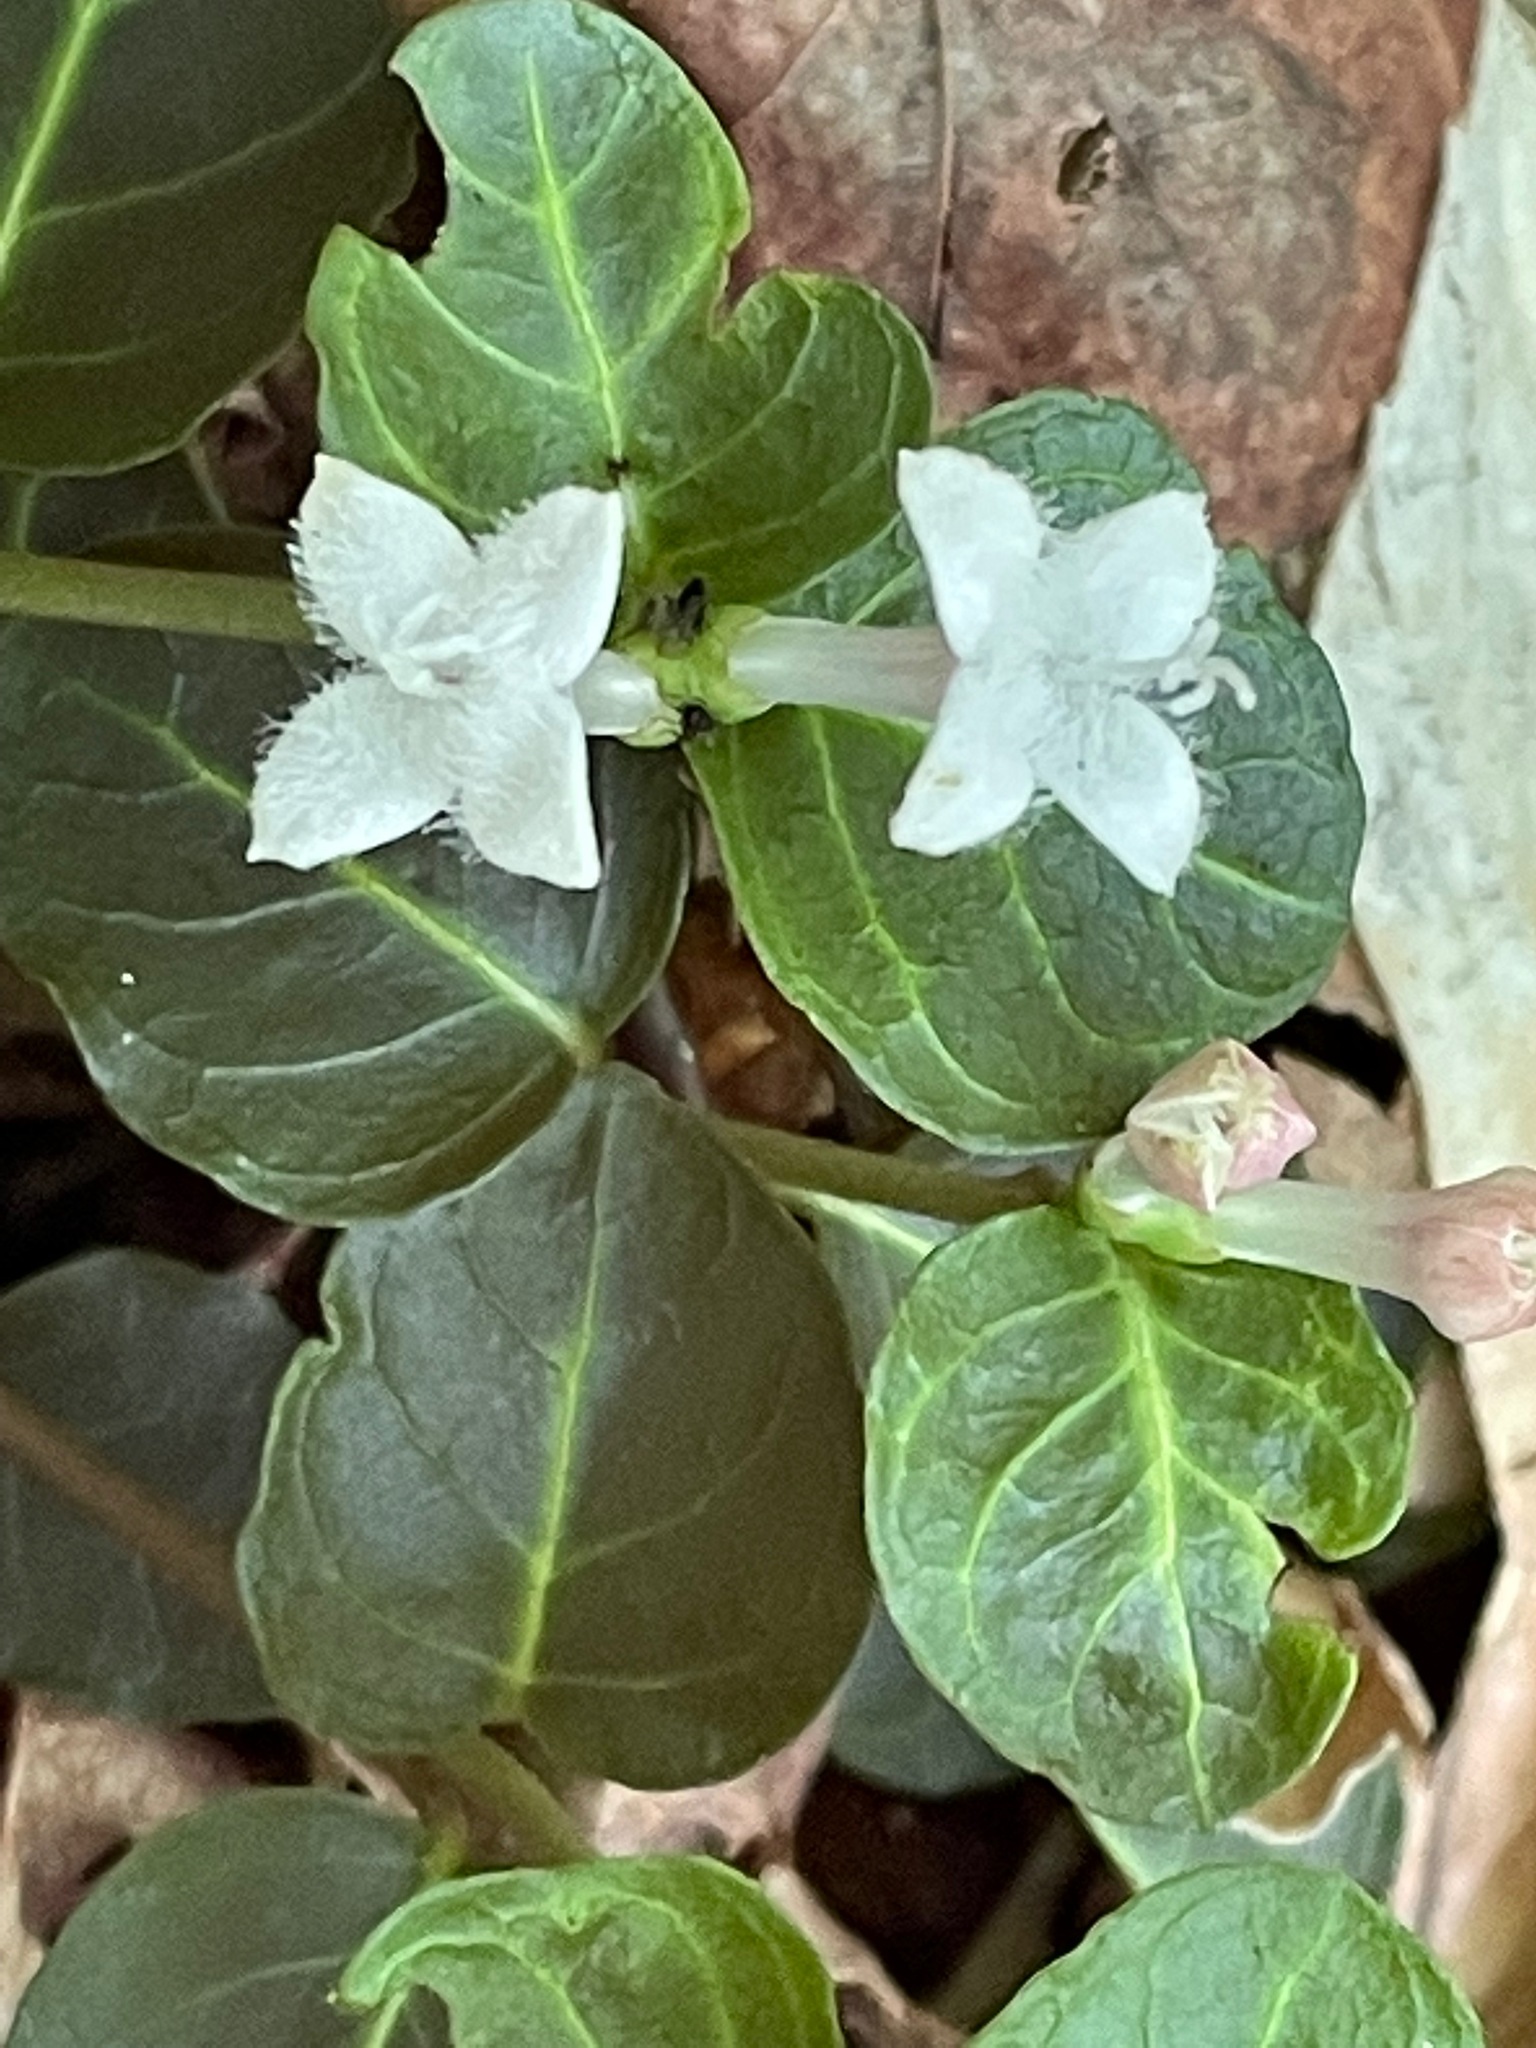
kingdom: Plantae
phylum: Tracheophyta
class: Magnoliopsida
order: Gentianales
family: Rubiaceae
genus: Mitchella
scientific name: Mitchella repens
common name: Partridge-berry
